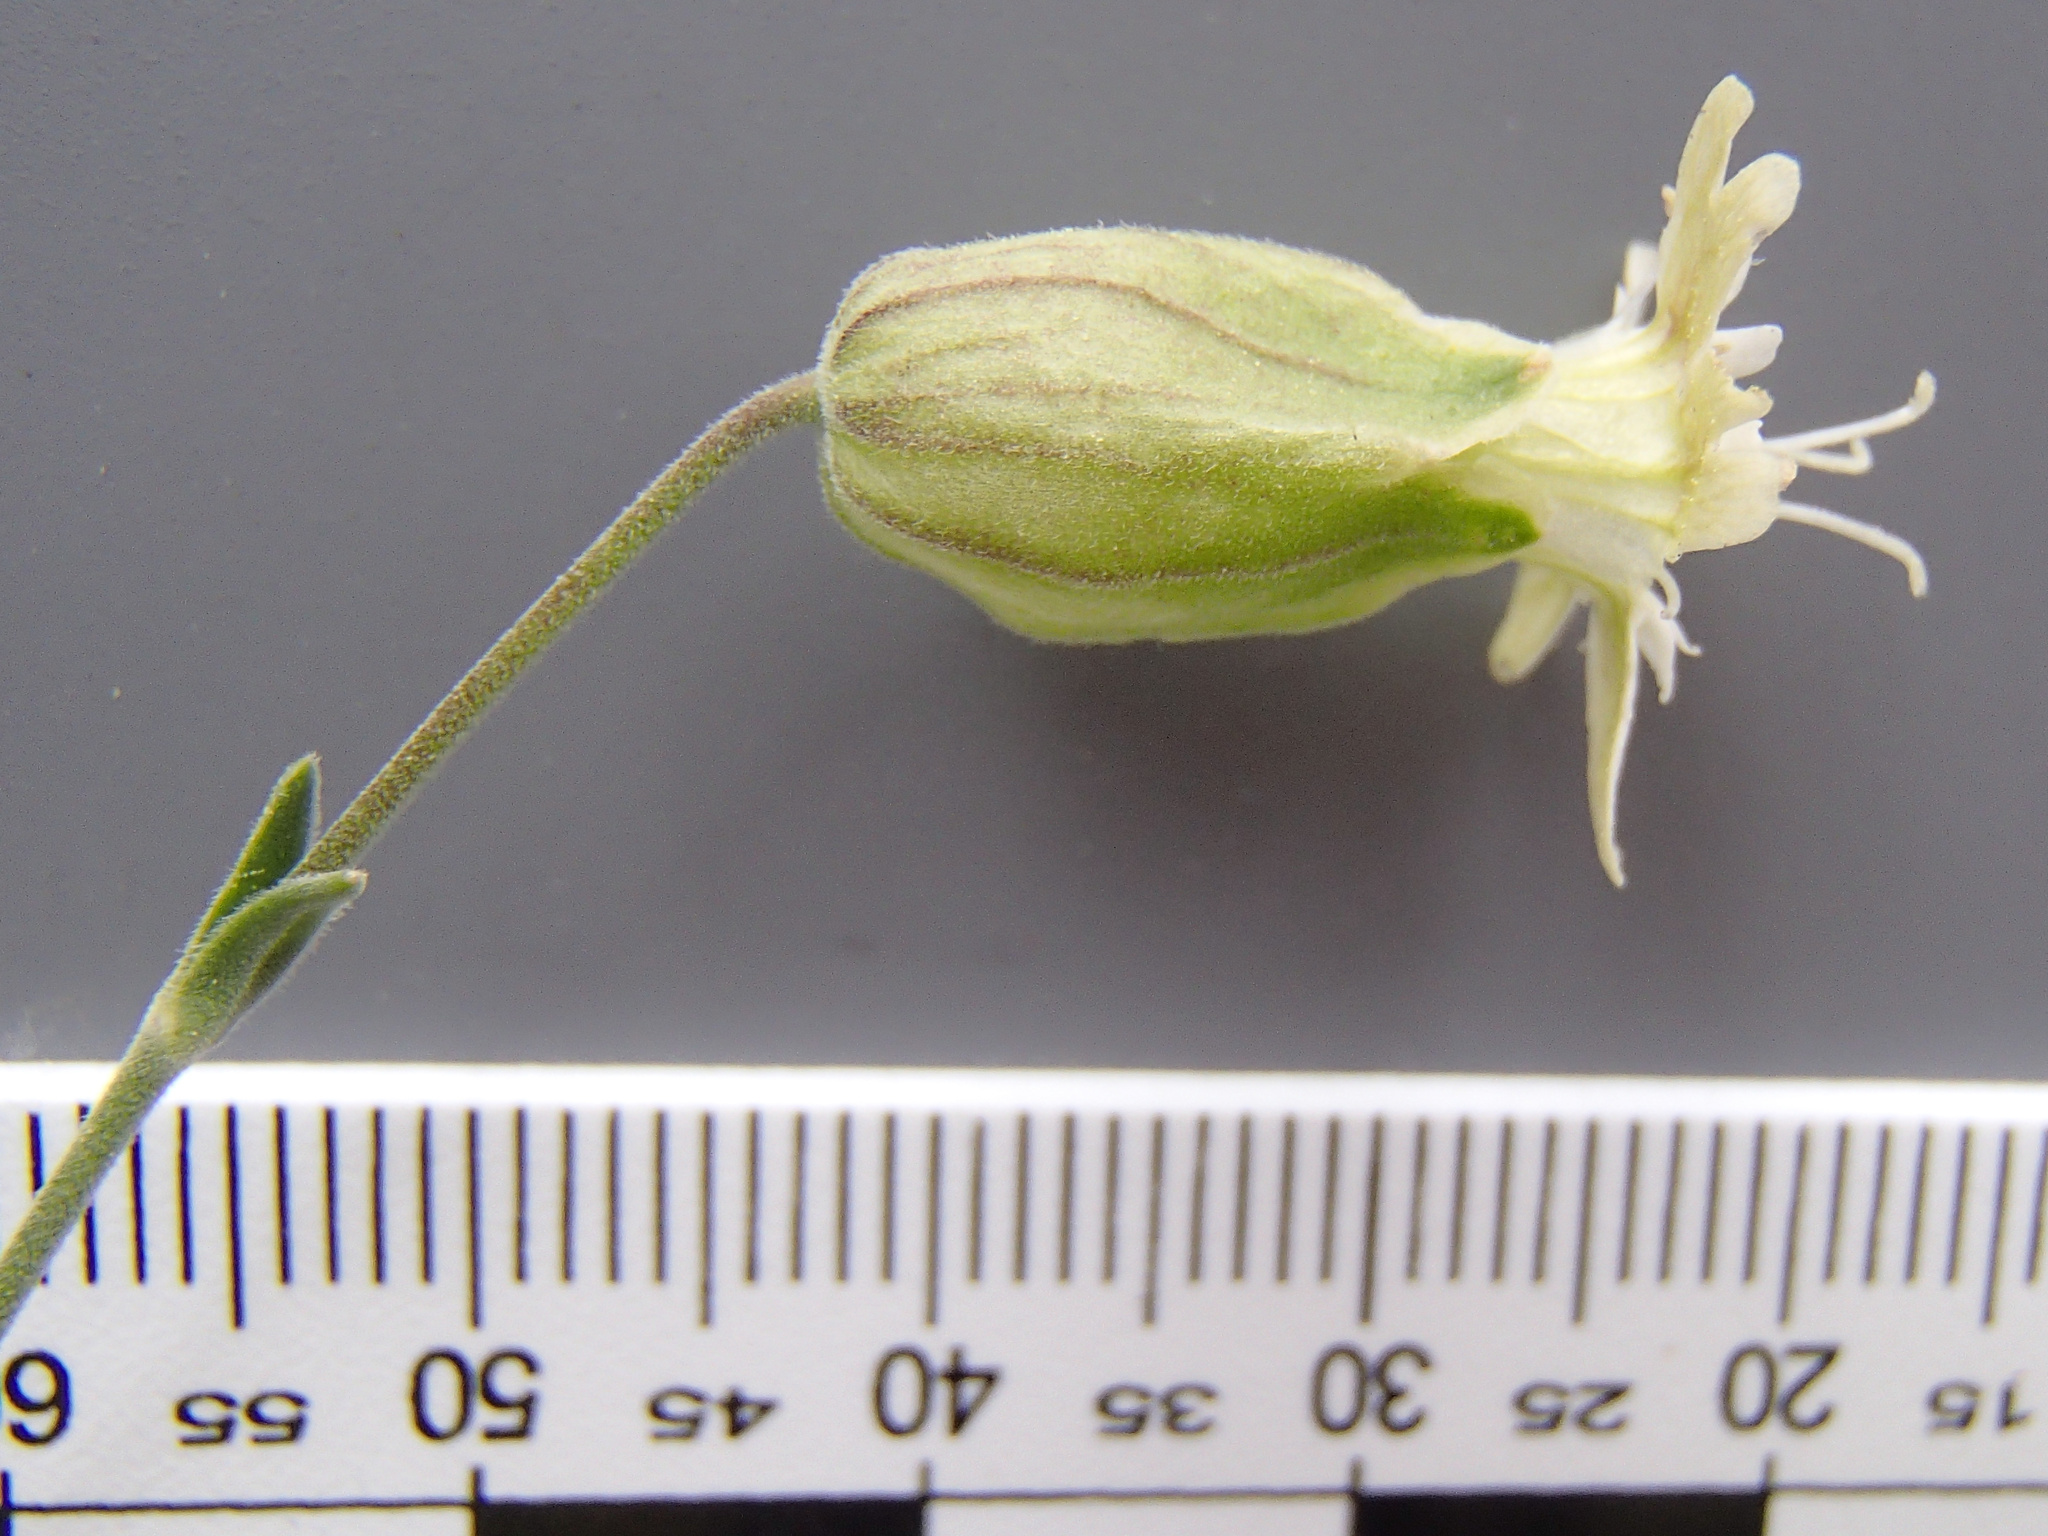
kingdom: Plantae
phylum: Tracheophyta
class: Magnoliopsida
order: Caryophyllales
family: Caryophyllaceae
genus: Silene
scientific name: Silene douglasii
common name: Douglas's catchfly
